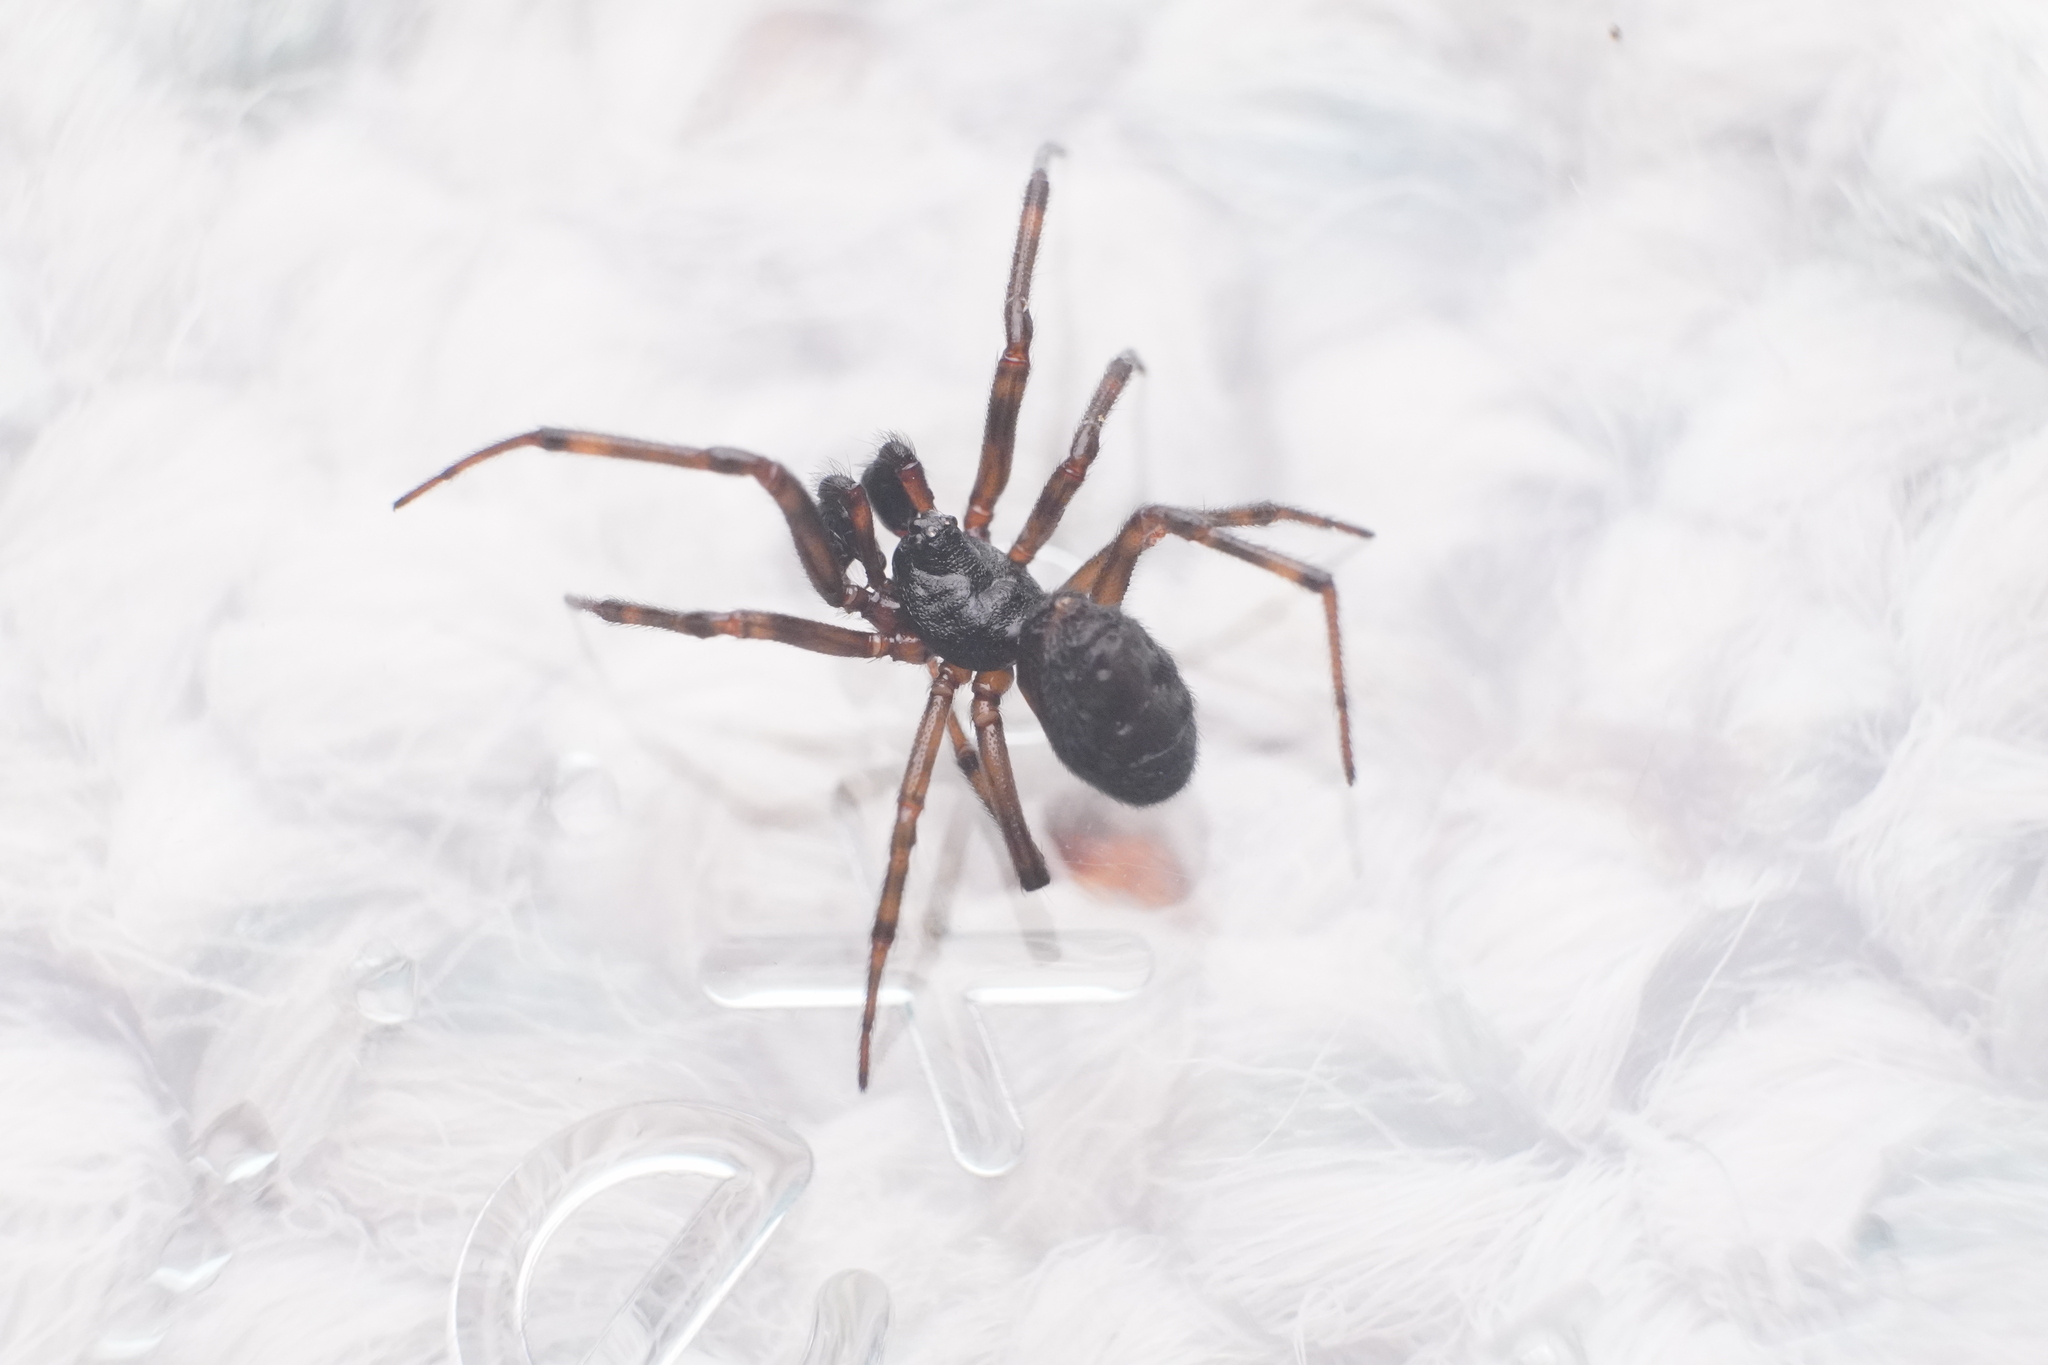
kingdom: Animalia
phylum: Arthropoda
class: Arachnida
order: Araneae
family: Theridiidae
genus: Steatoda
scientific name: Steatoda borealis
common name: Boreal combfoot
